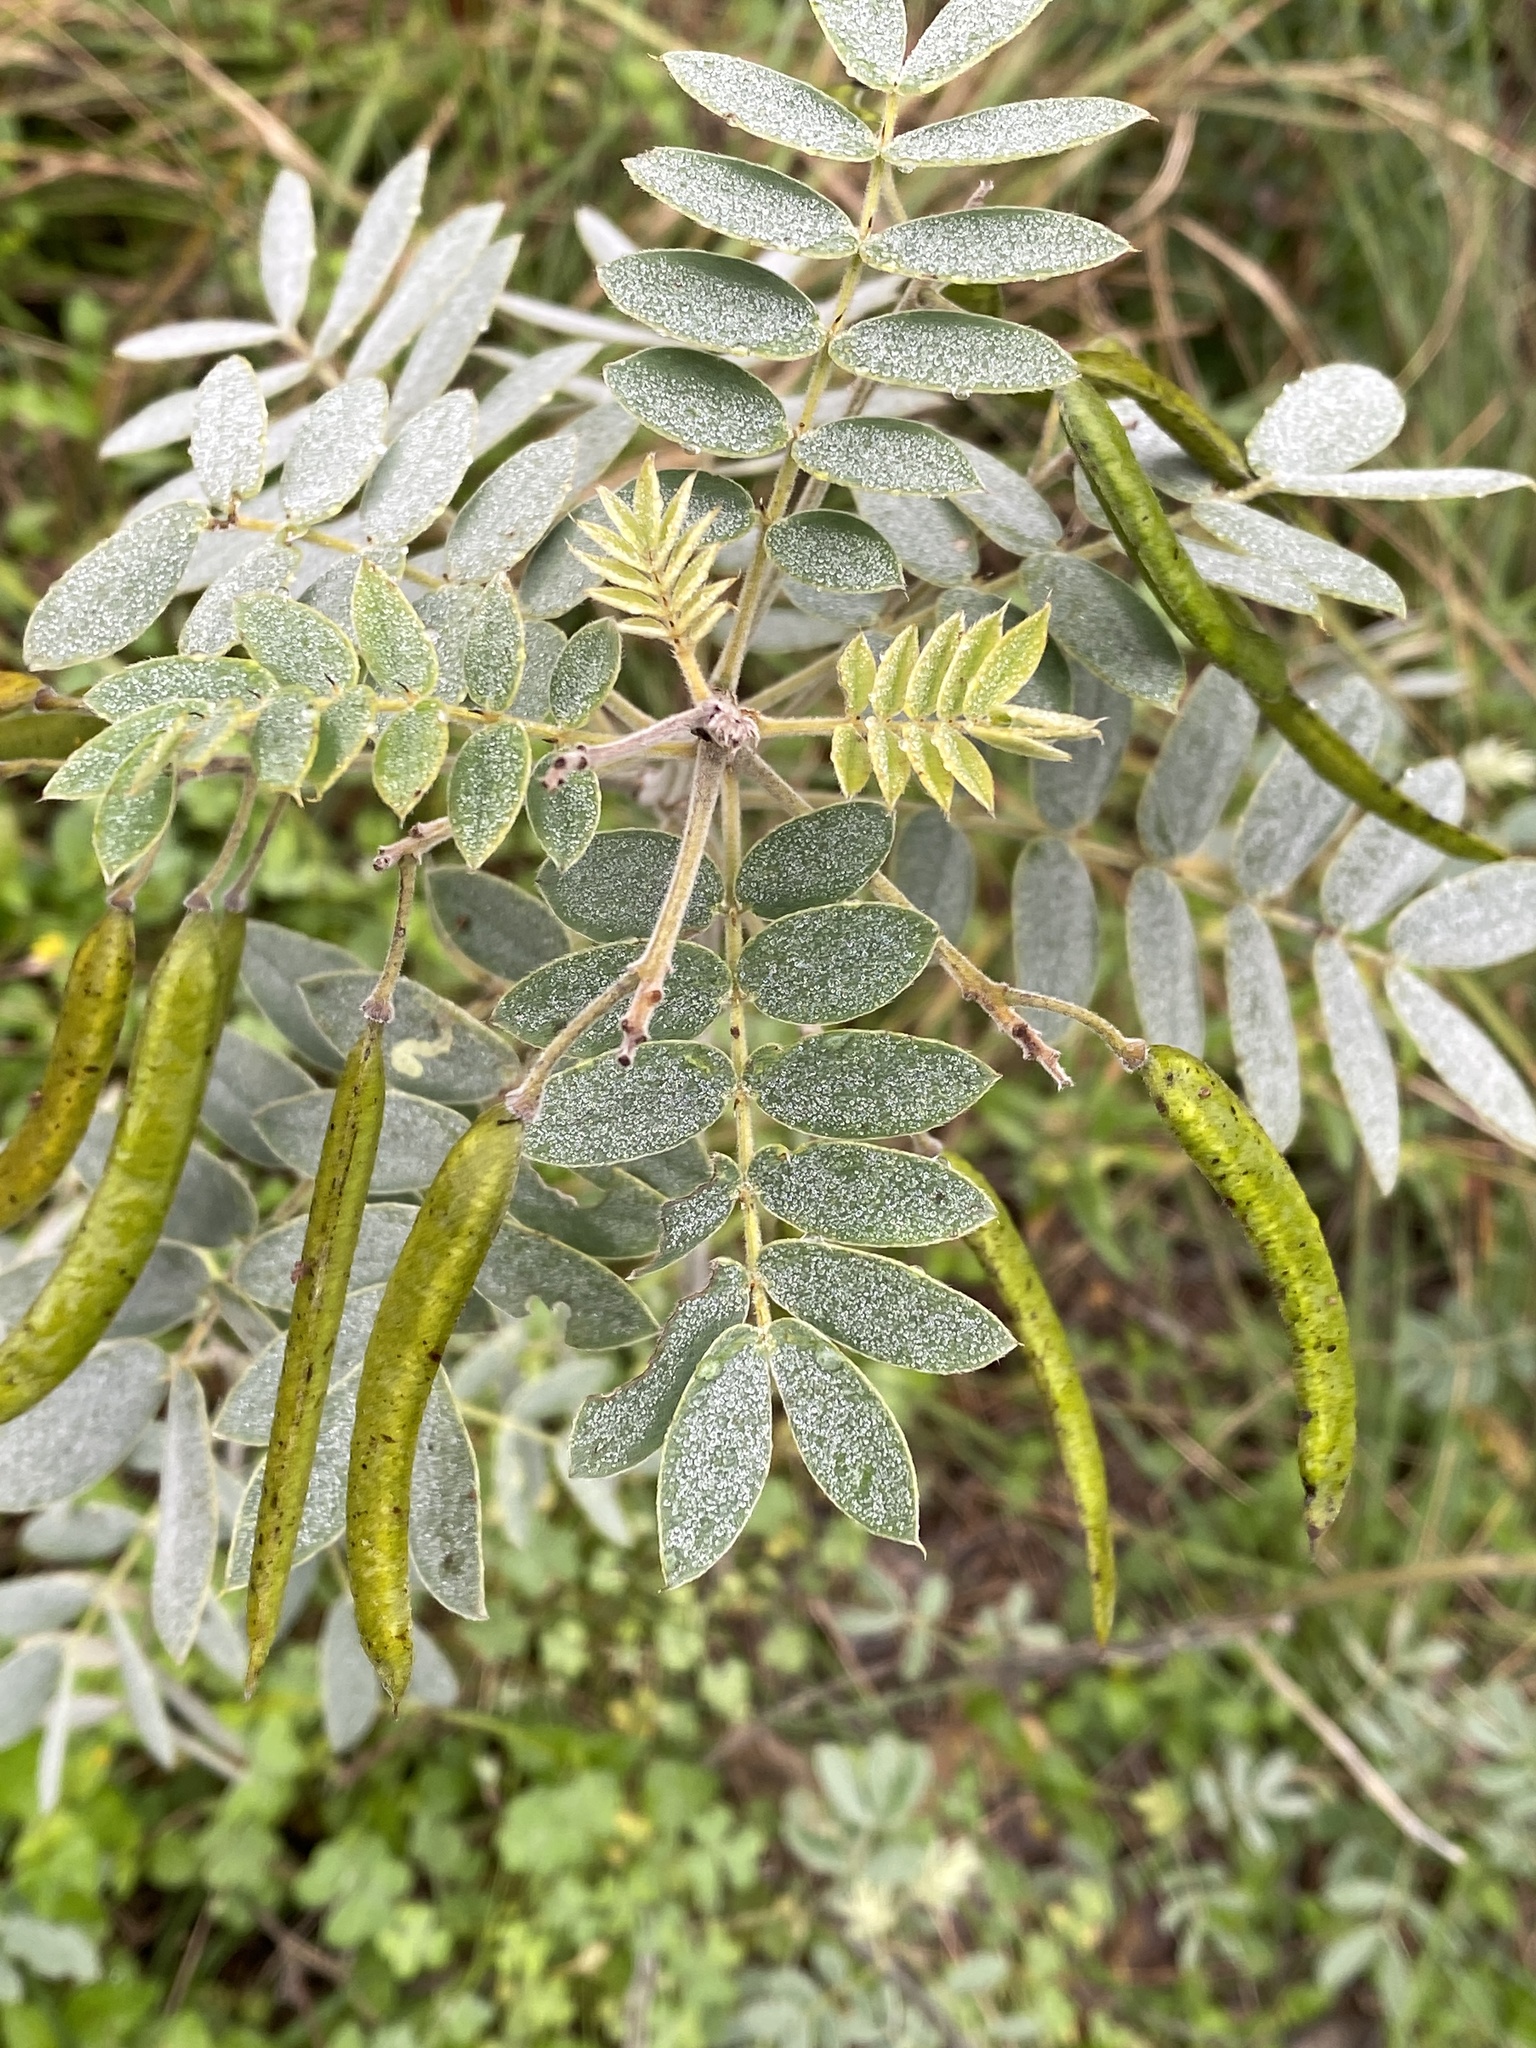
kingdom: Plantae
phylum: Tracheophyta
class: Magnoliopsida
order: Fabales
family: Fabaceae
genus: Senna
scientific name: Senna lindheimeriana
